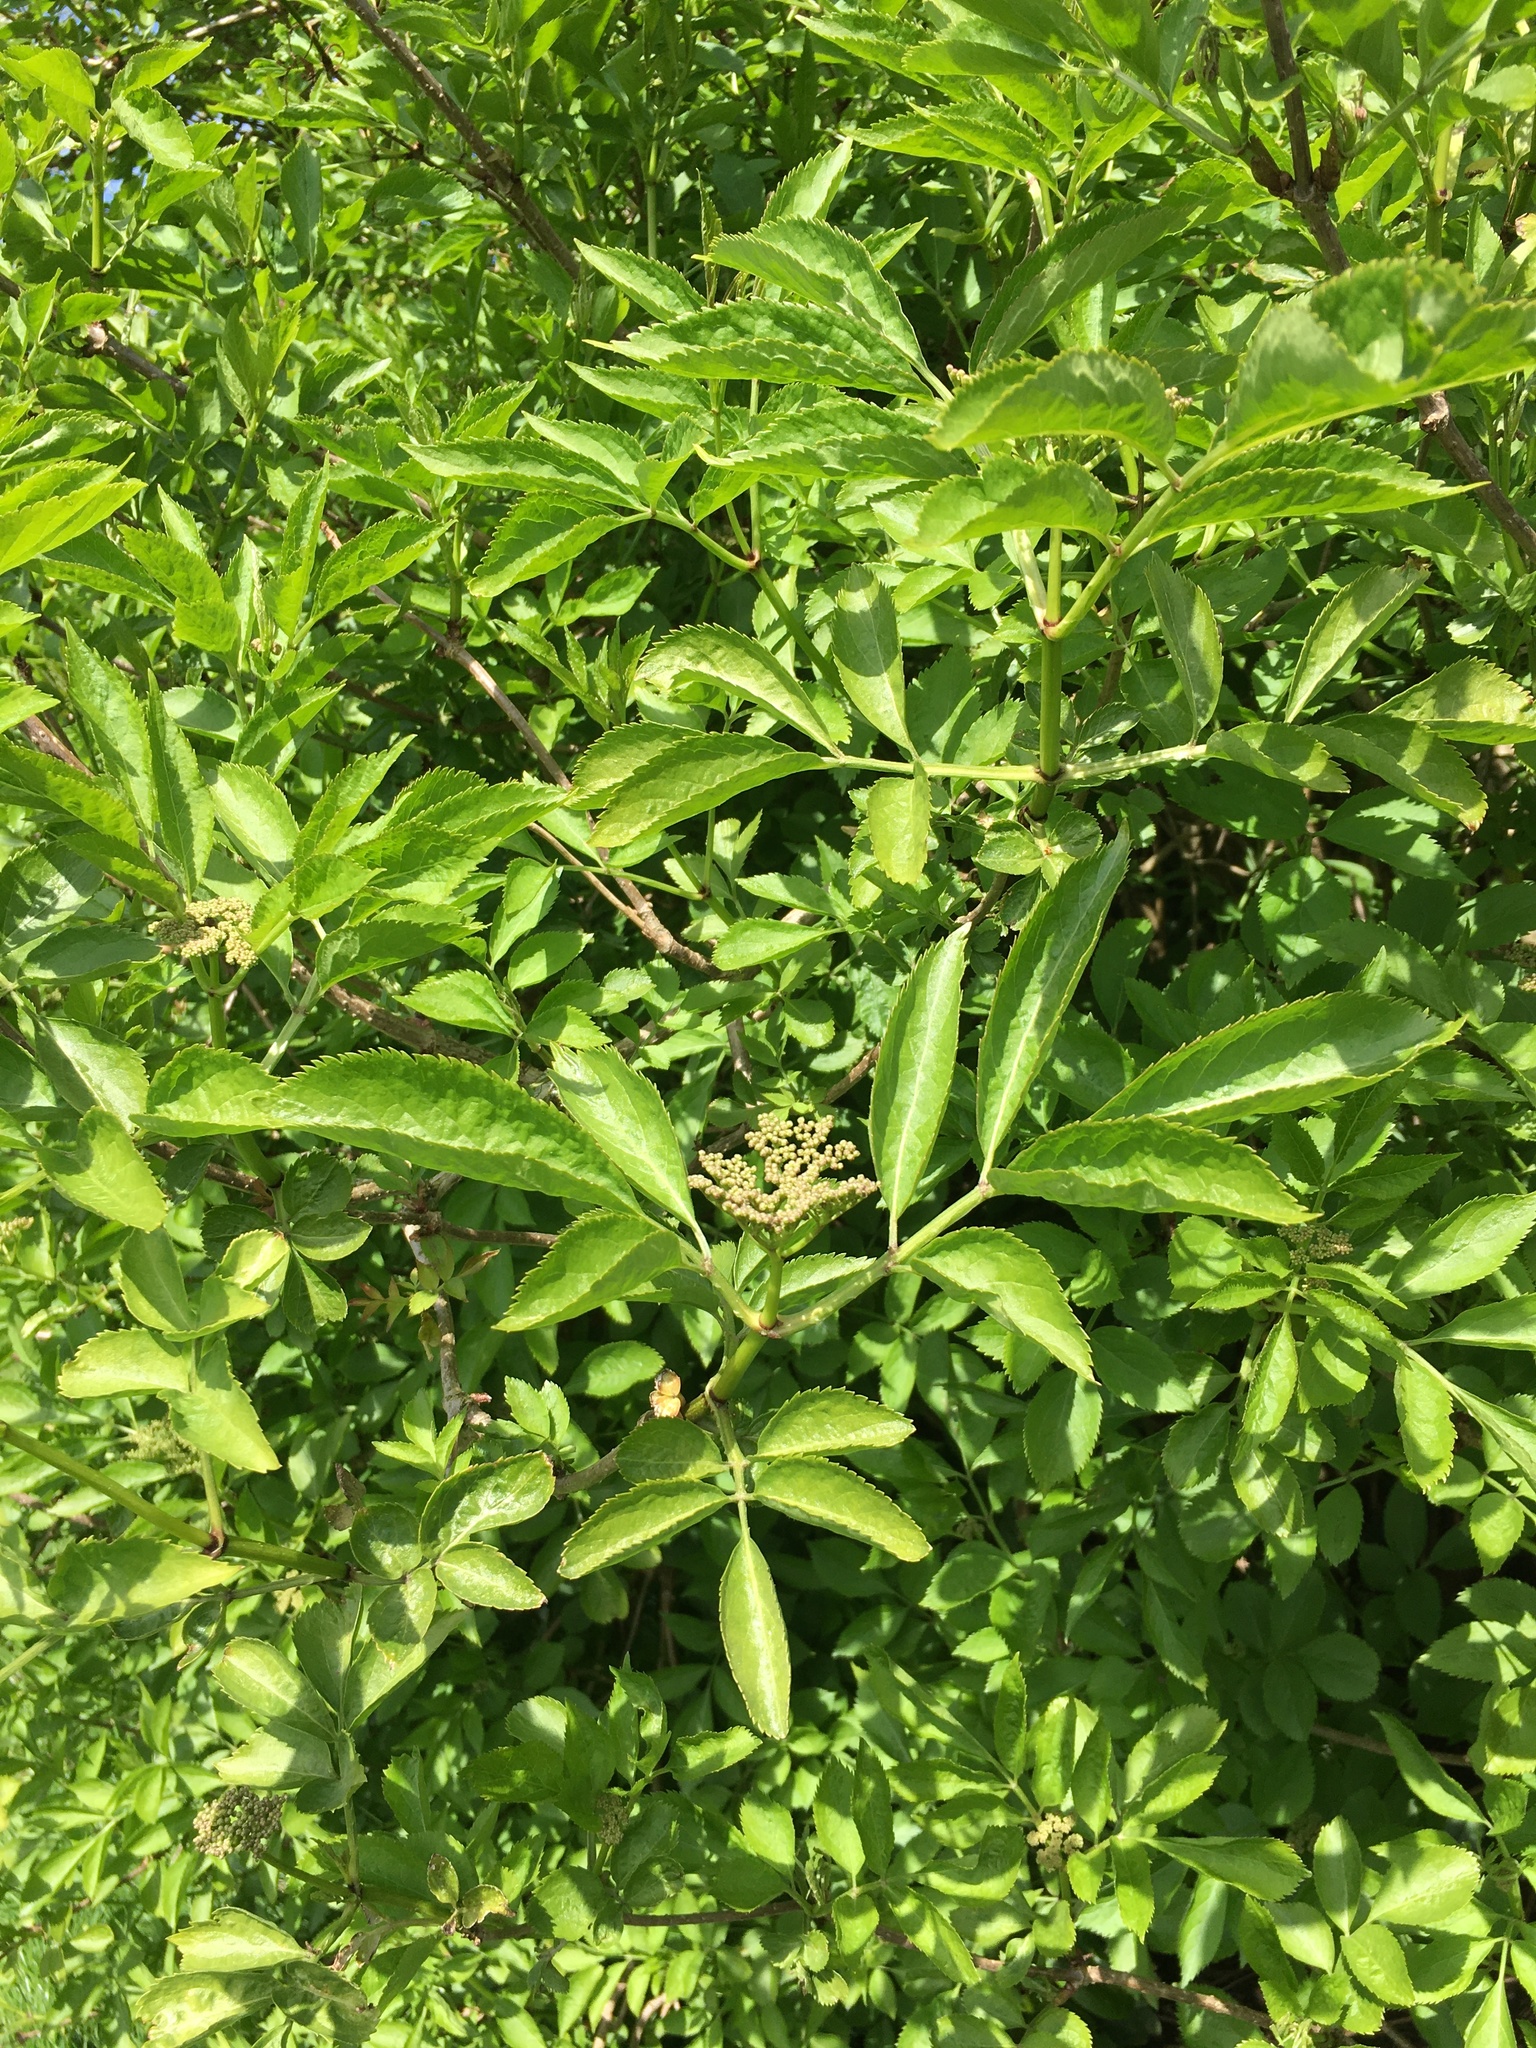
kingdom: Plantae
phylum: Tracheophyta
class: Magnoliopsida
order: Dipsacales
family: Viburnaceae
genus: Sambucus
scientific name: Sambucus nigra
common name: Elder
